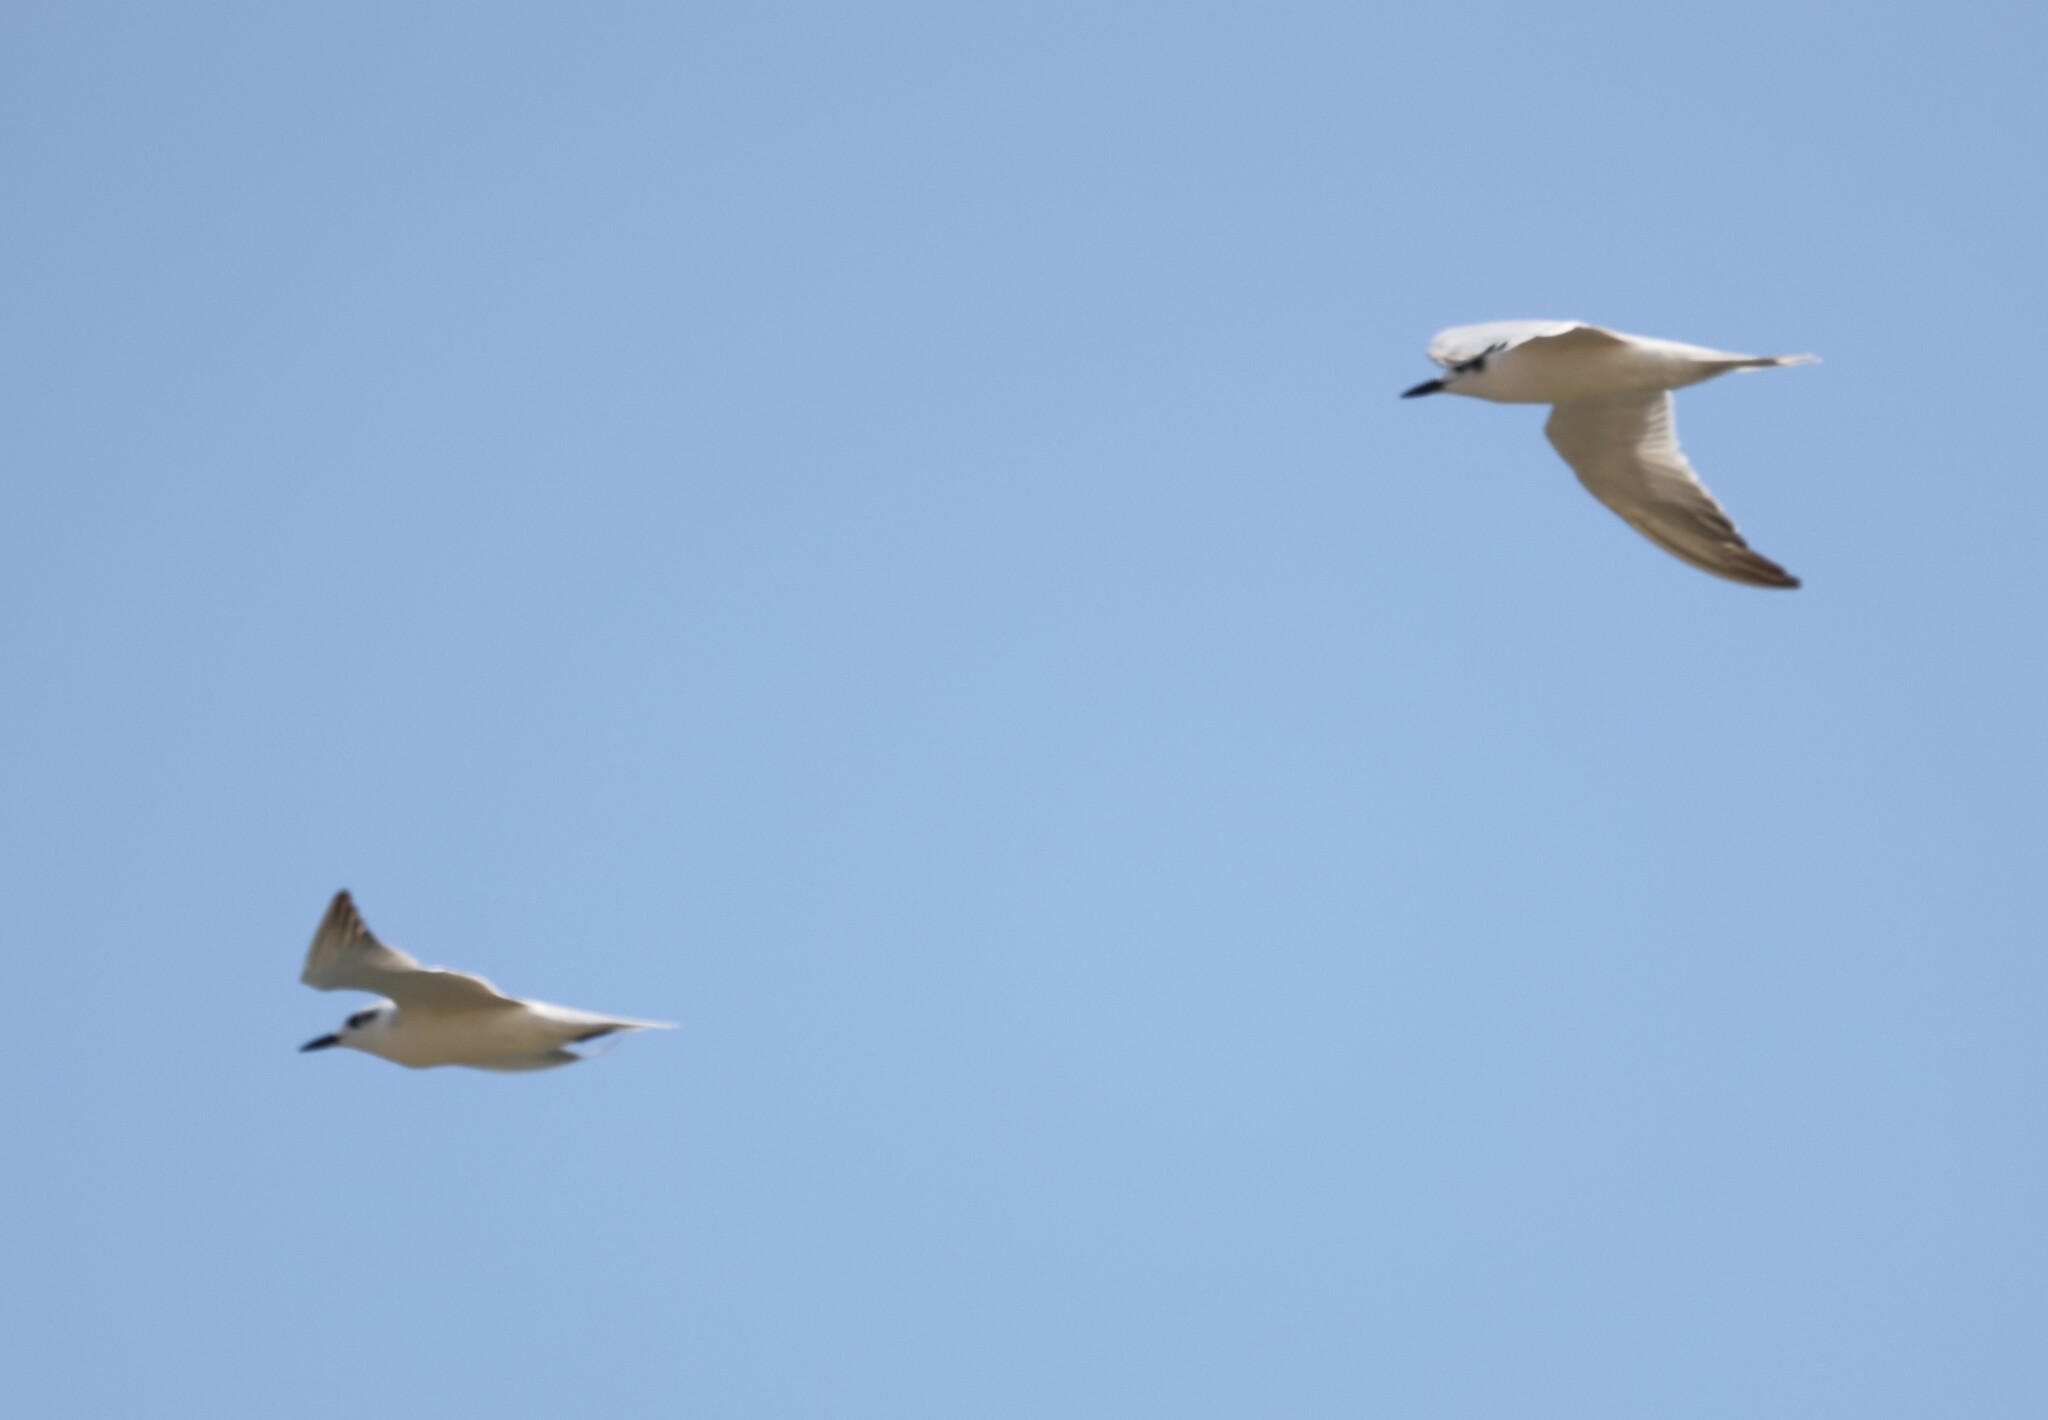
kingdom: Animalia
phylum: Chordata
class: Aves
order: Charadriiformes
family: Laridae
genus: Gelochelidon
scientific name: Gelochelidon nilotica
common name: Gull-billed tern
